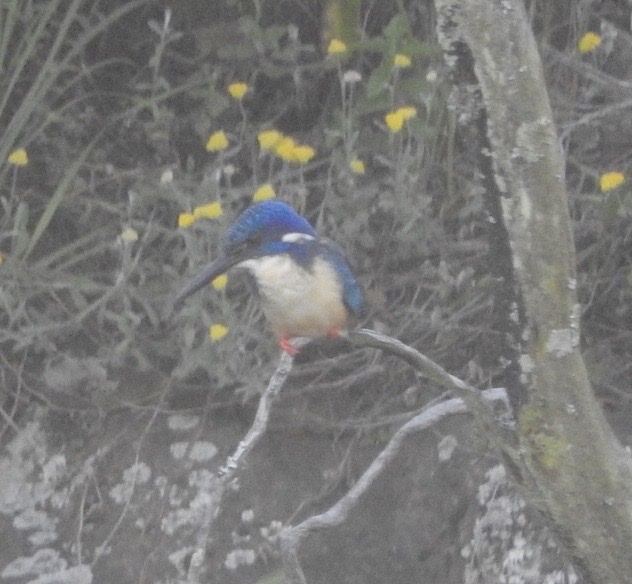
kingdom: Animalia
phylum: Chordata
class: Aves
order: Coraciiformes
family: Alcedinidae
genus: Alcedo
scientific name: Alcedo semitorquata
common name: Half-collared kingfisher
